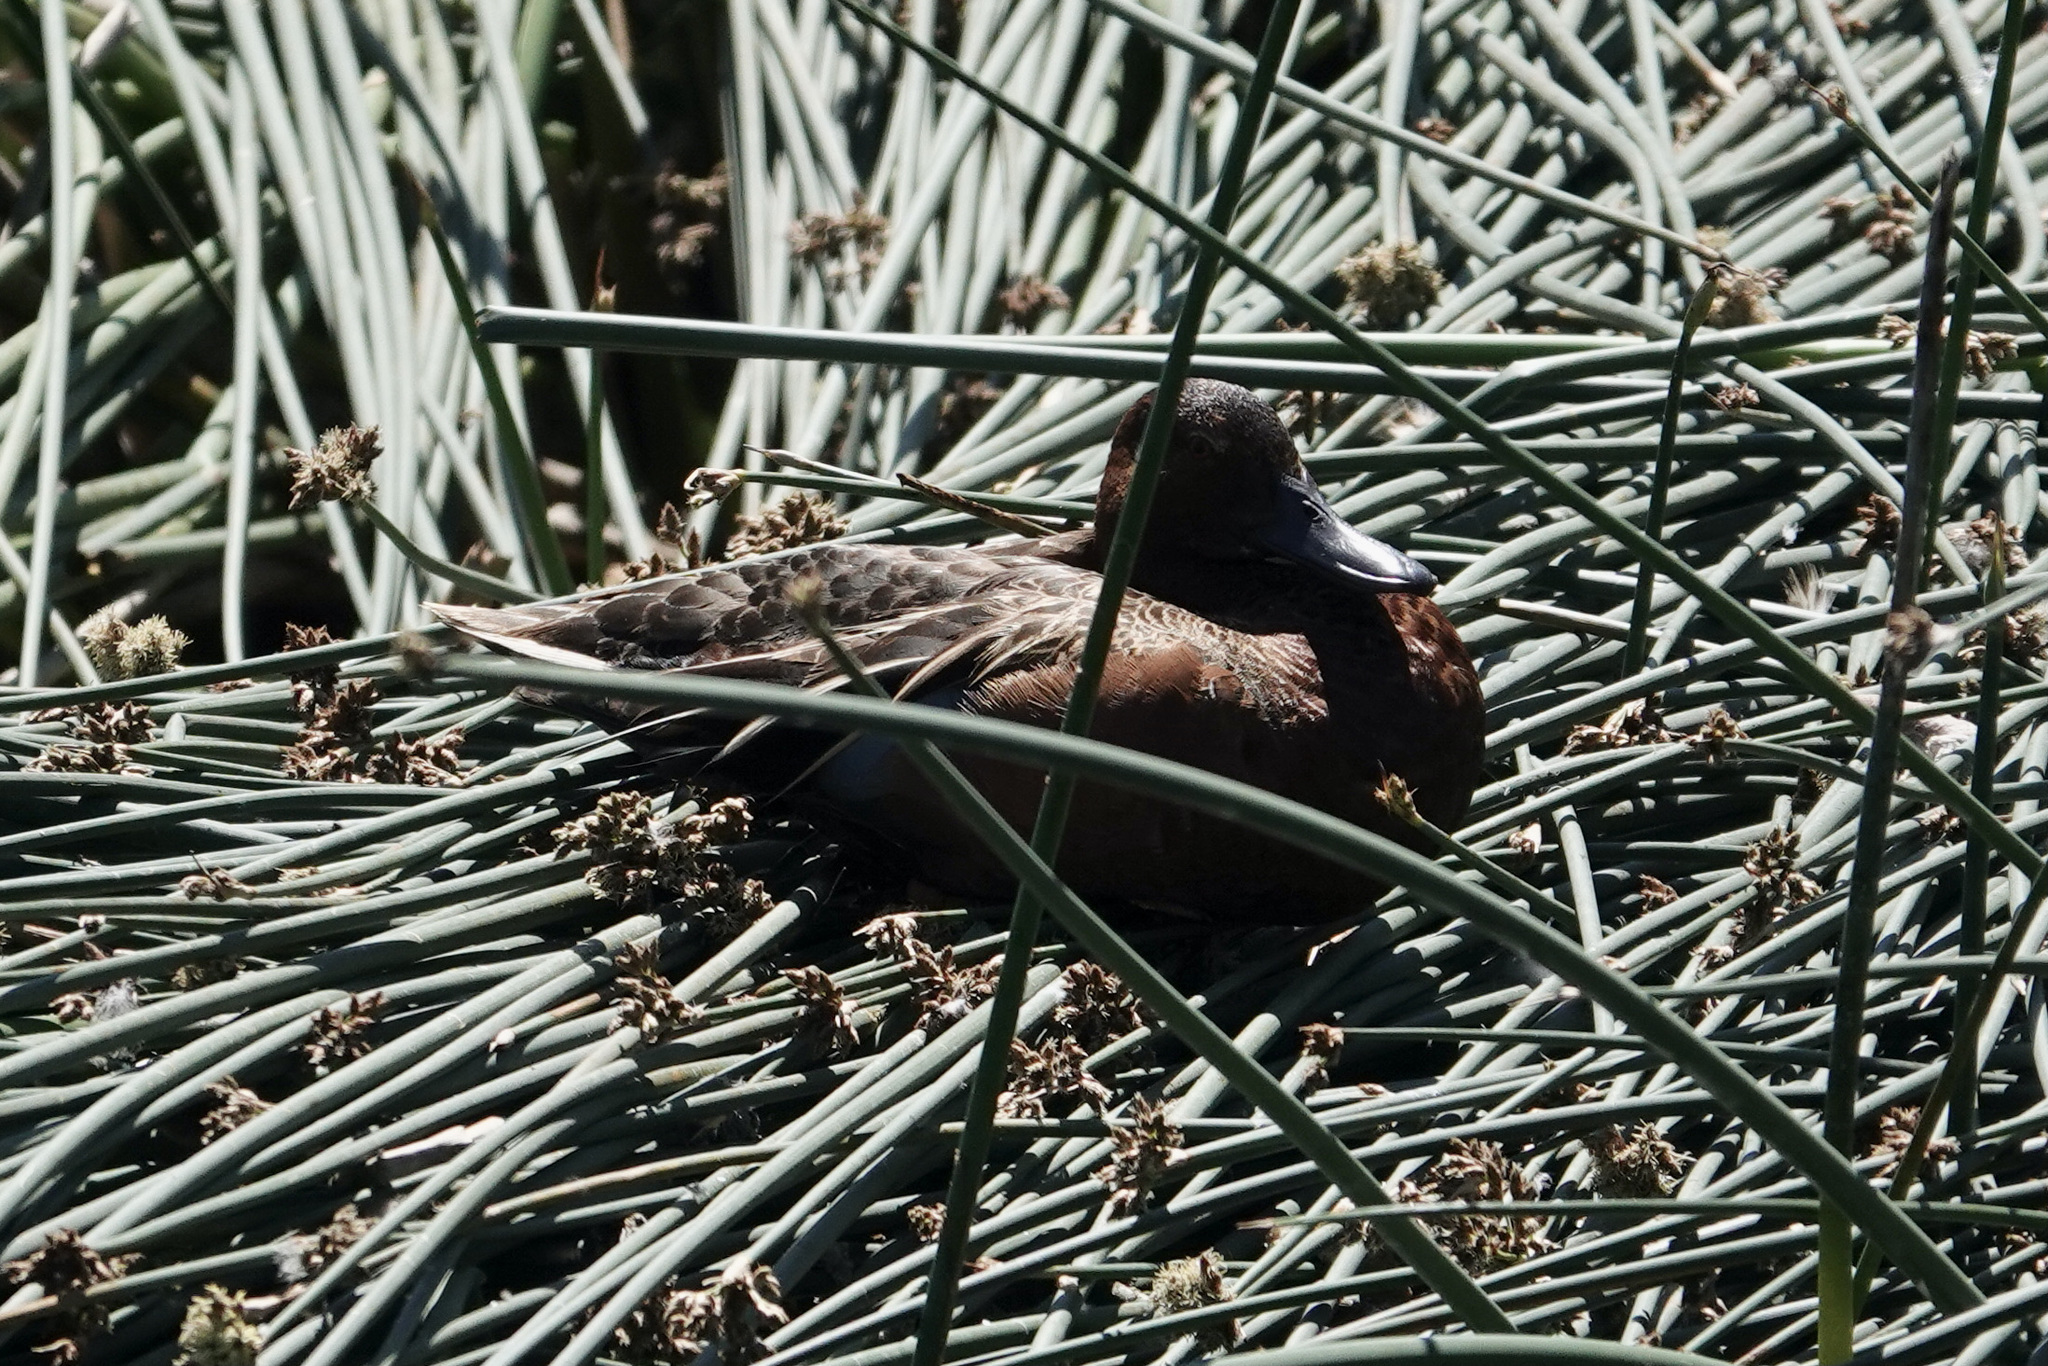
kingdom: Animalia
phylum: Chordata
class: Aves
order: Anseriformes
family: Anatidae
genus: Spatula
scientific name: Spatula cyanoptera
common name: Cinnamon teal
